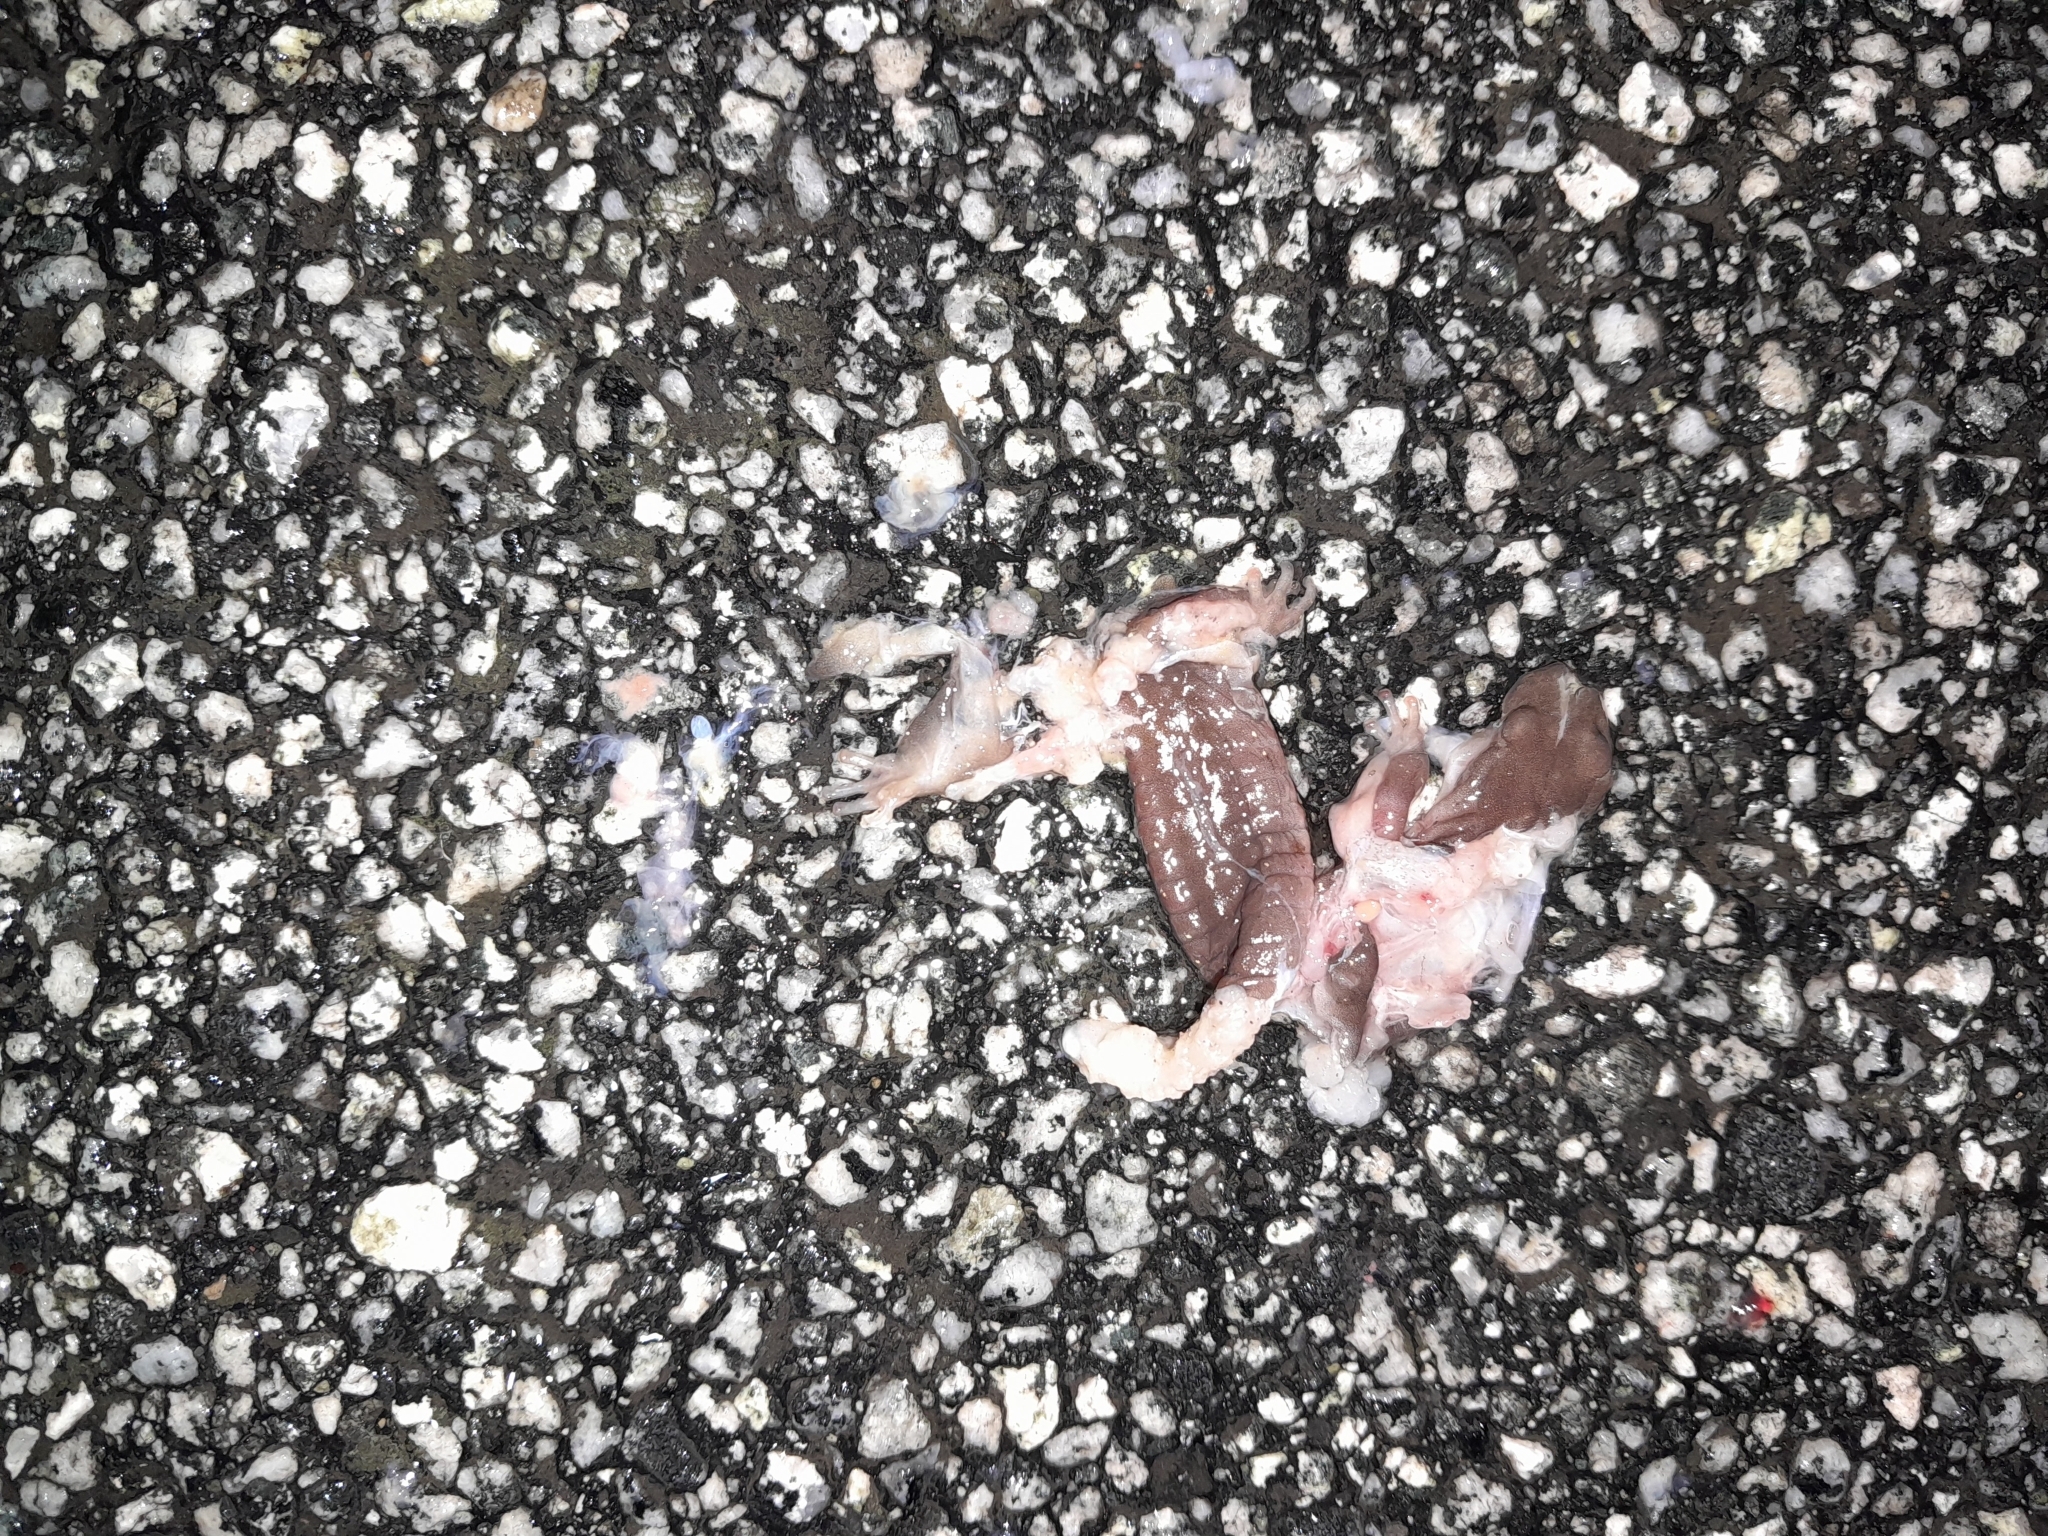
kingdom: Animalia
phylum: Chordata
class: Amphibia
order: Caudata
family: Plethodontidae
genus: Aneides
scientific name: Aneides lugubris
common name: Arboreal salamander
